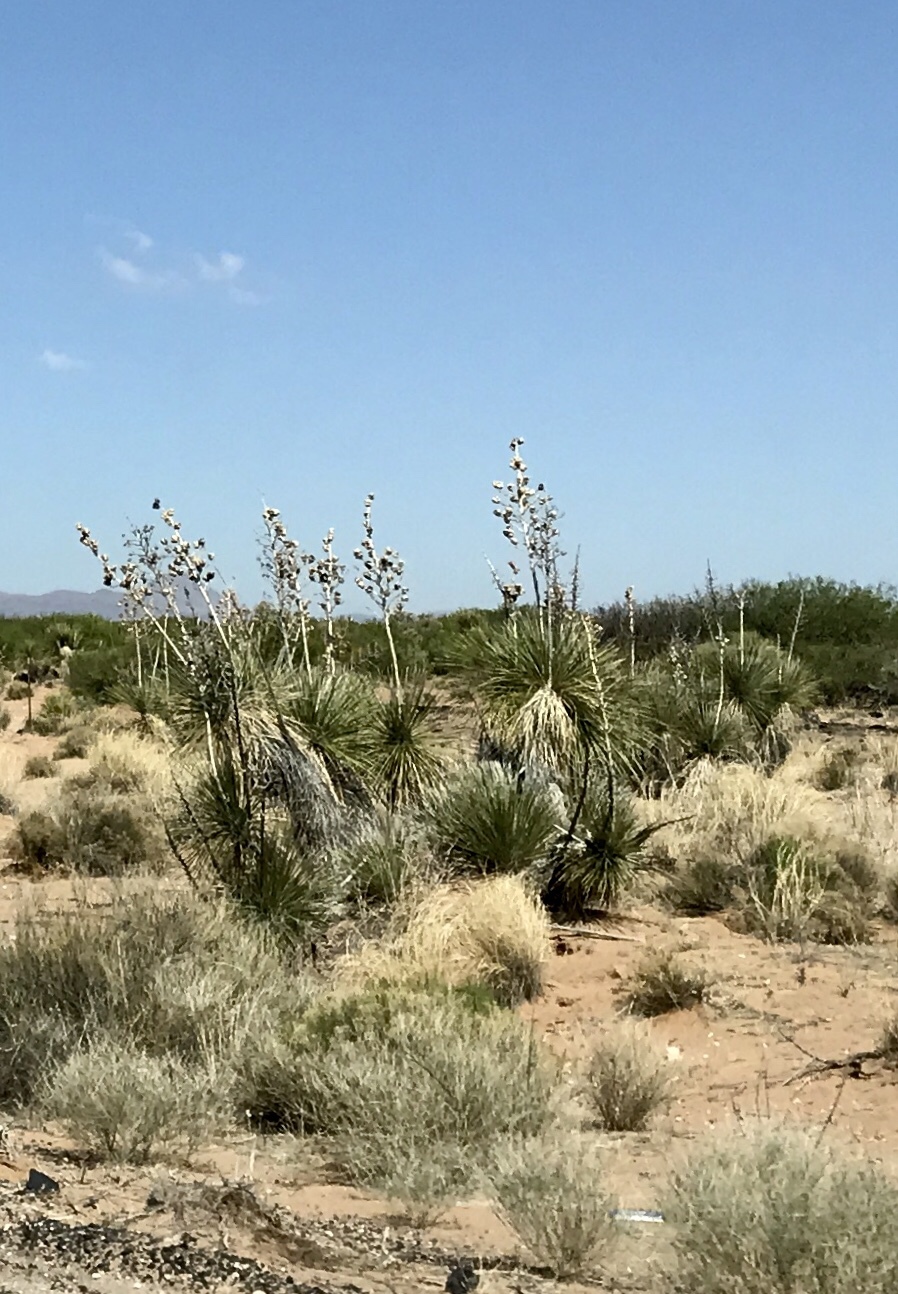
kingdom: Plantae
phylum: Tracheophyta
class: Liliopsida
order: Asparagales
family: Asparagaceae
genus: Yucca
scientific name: Yucca elata
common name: Palmella
